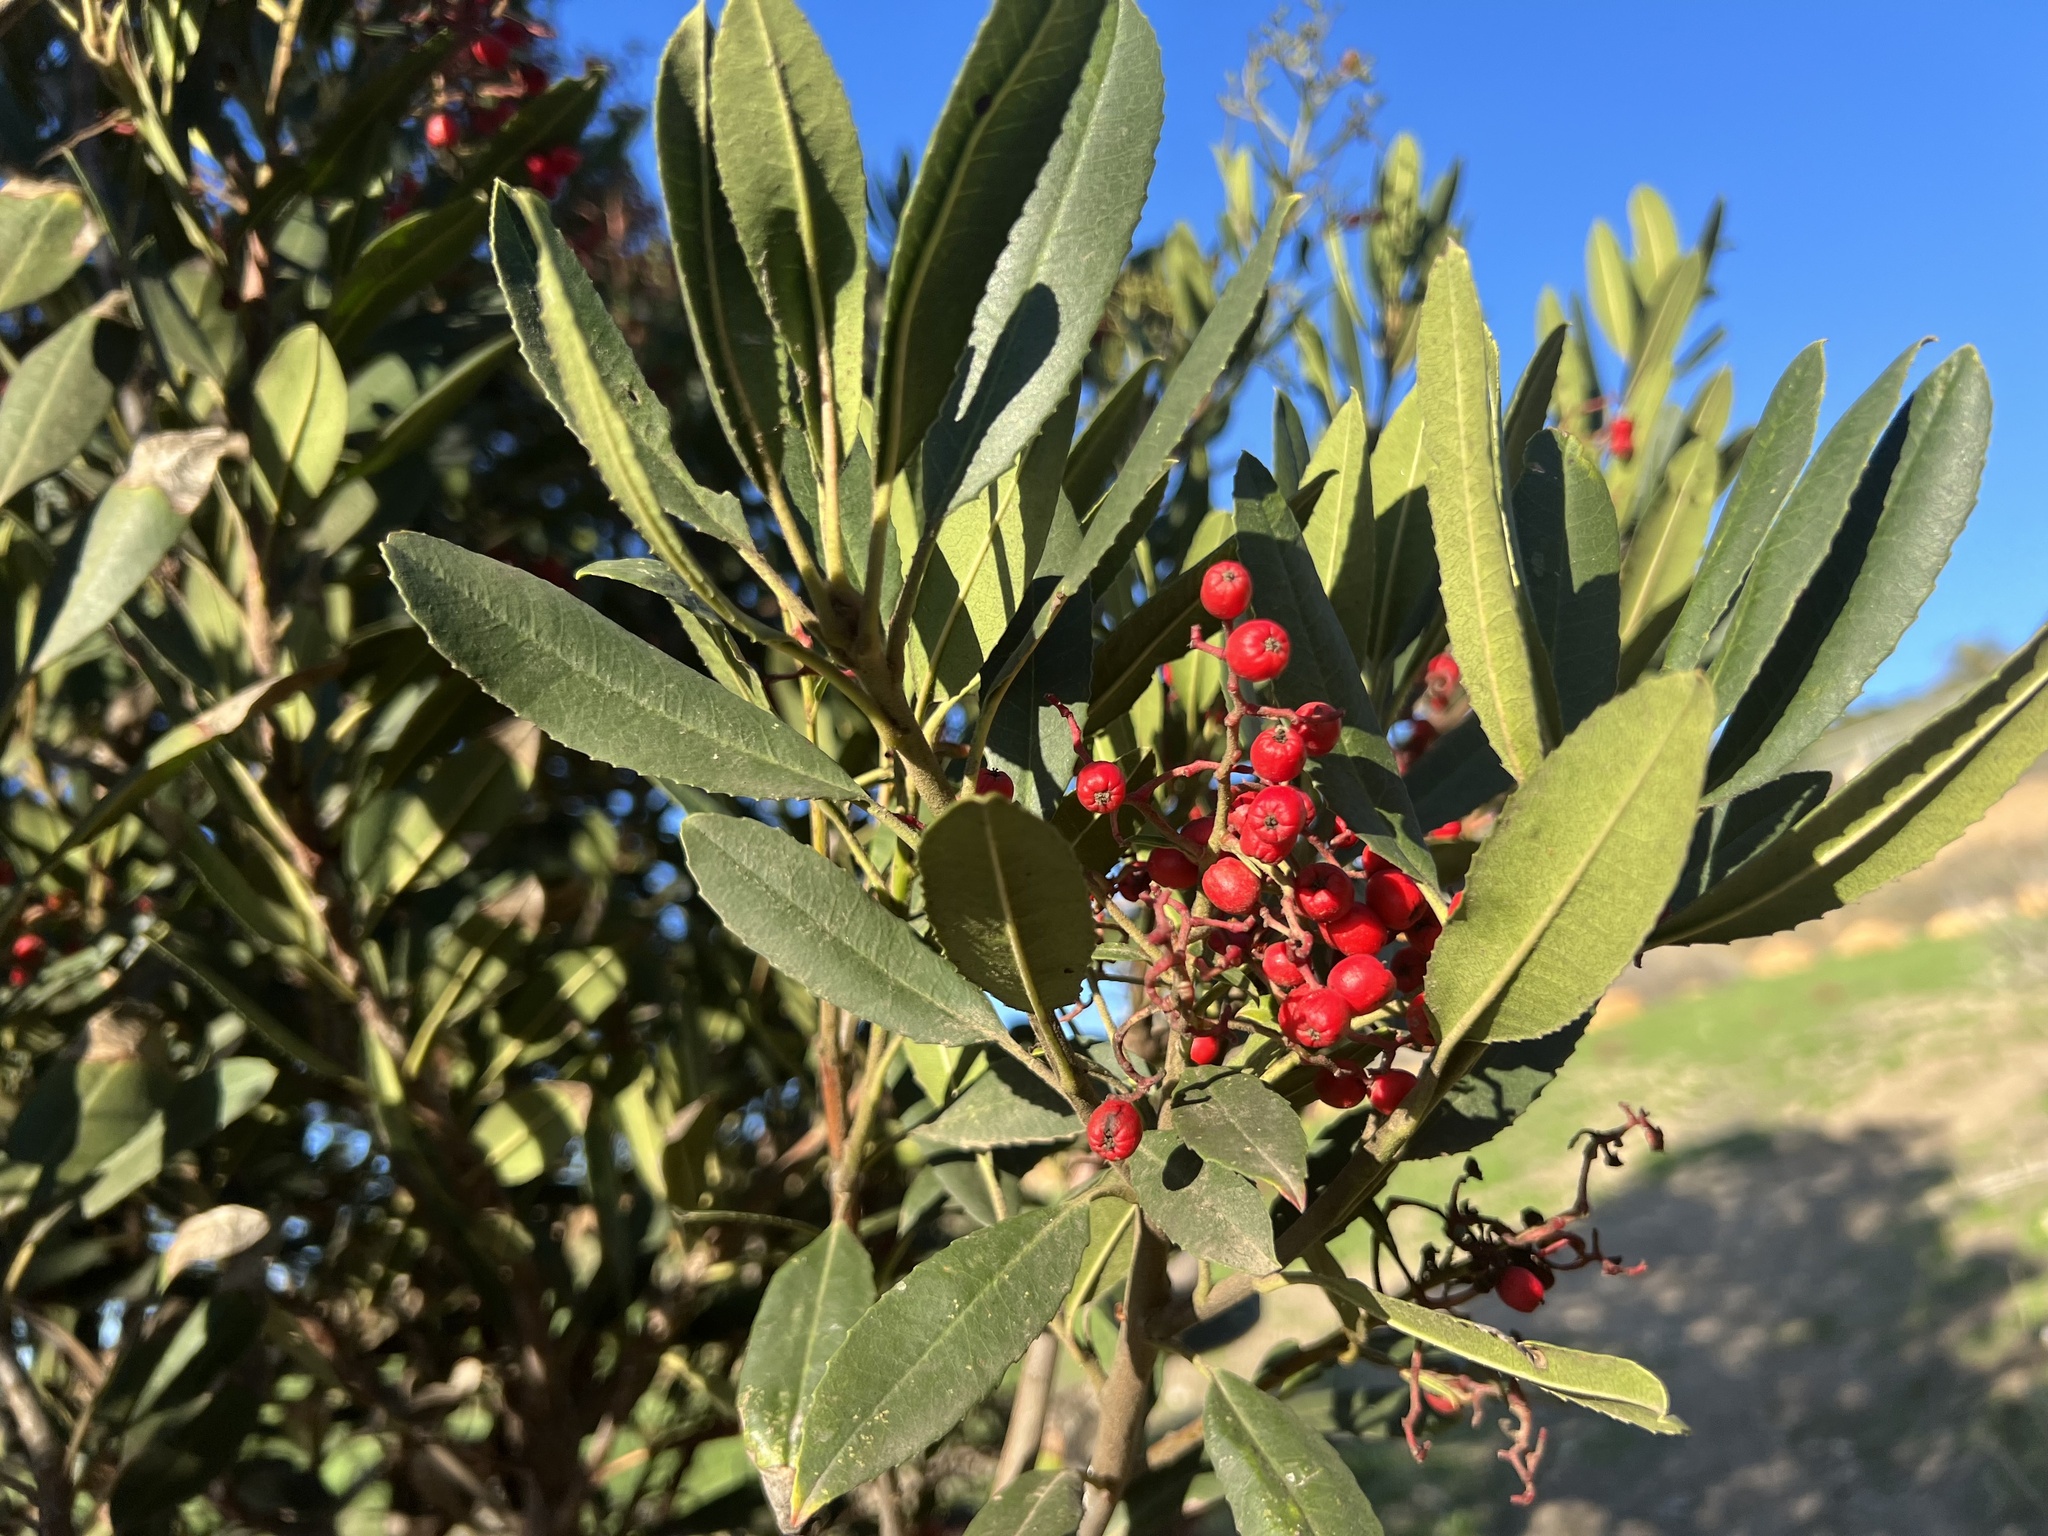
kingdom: Plantae
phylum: Tracheophyta
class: Magnoliopsida
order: Rosales
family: Rosaceae
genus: Heteromeles
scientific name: Heteromeles arbutifolia
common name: California-holly
